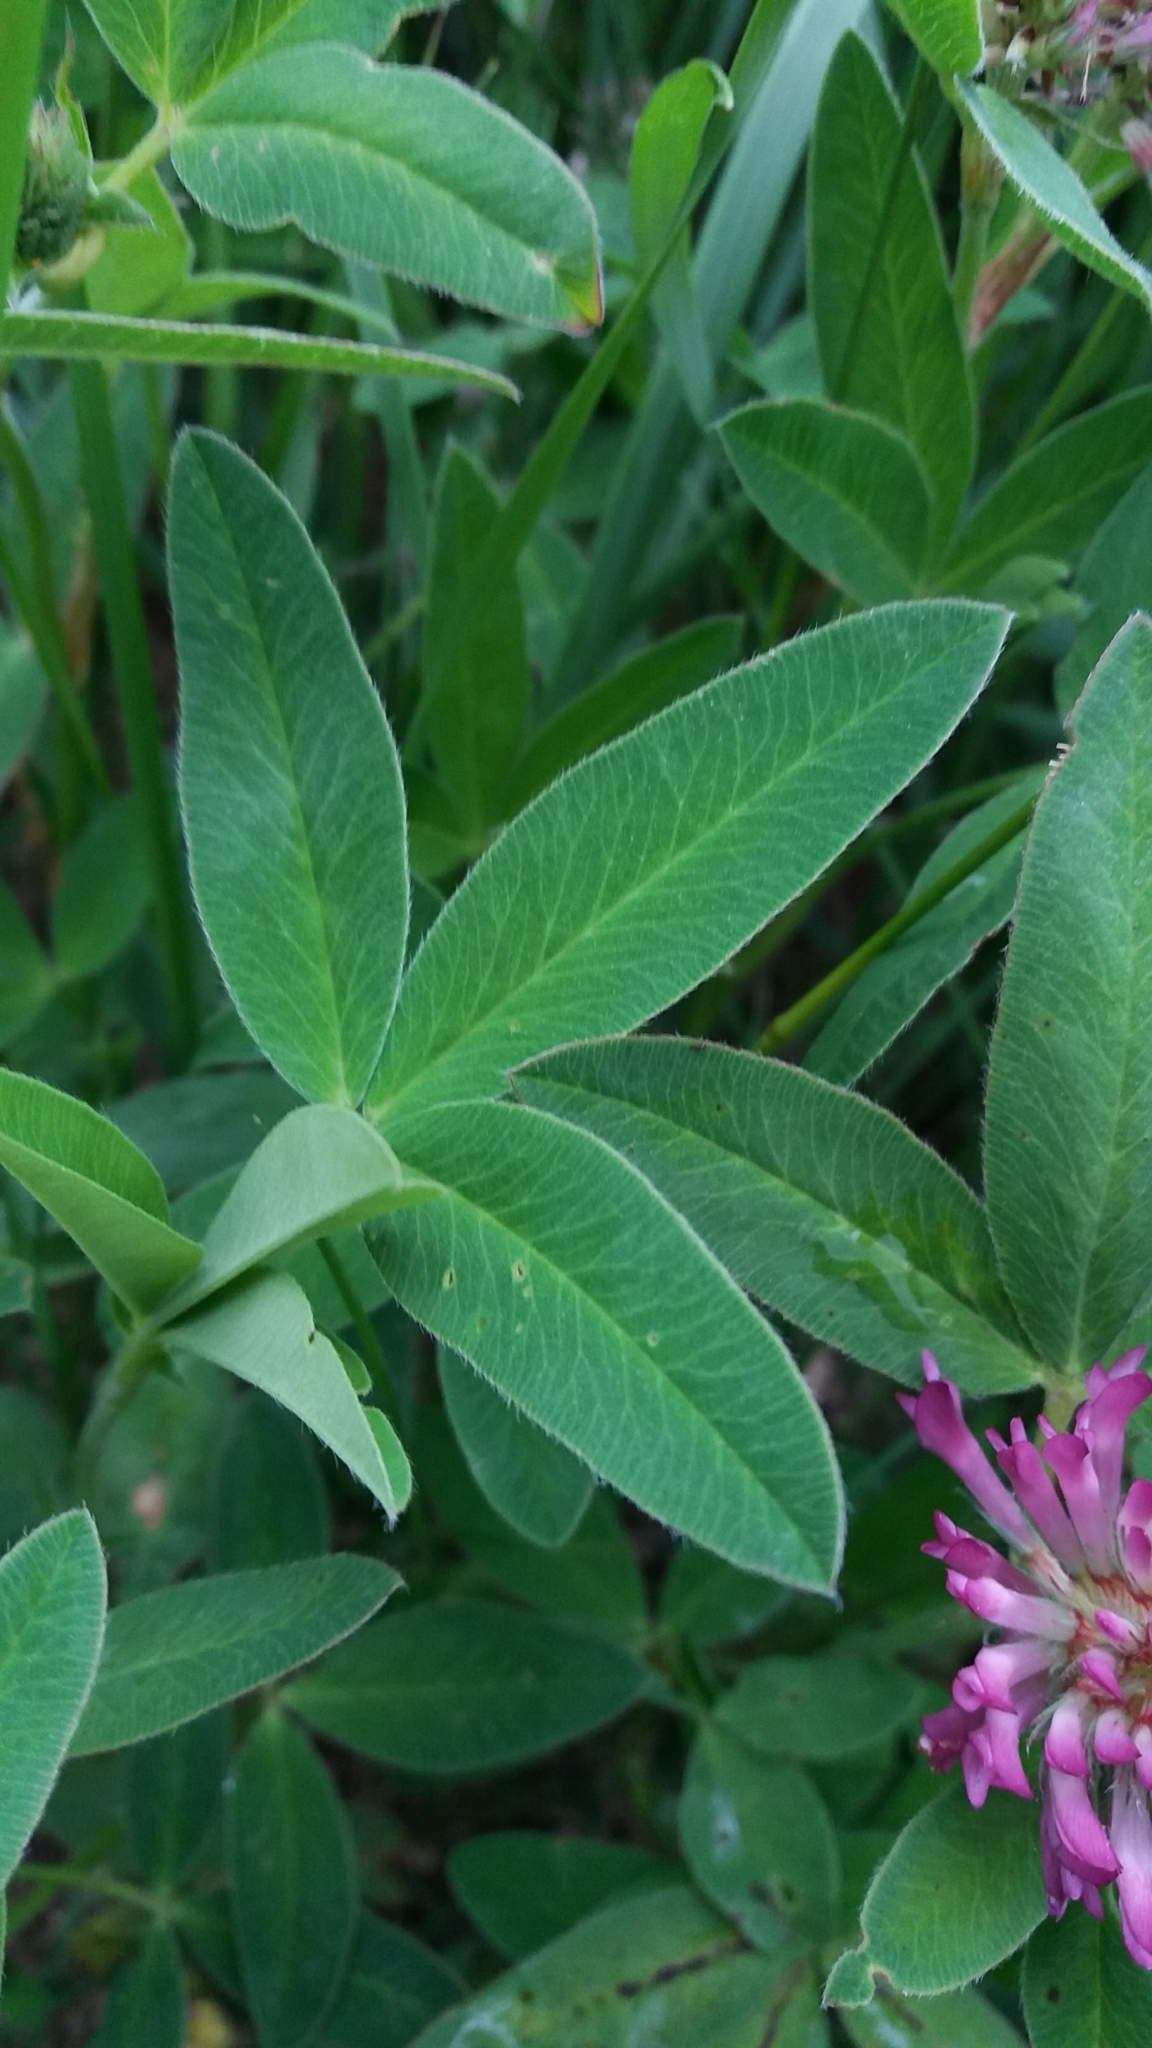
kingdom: Plantae
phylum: Tracheophyta
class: Magnoliopsida
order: Fabales
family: Fabaceae
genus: Trifolium
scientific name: Trifolium medium
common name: Zigzag clover
